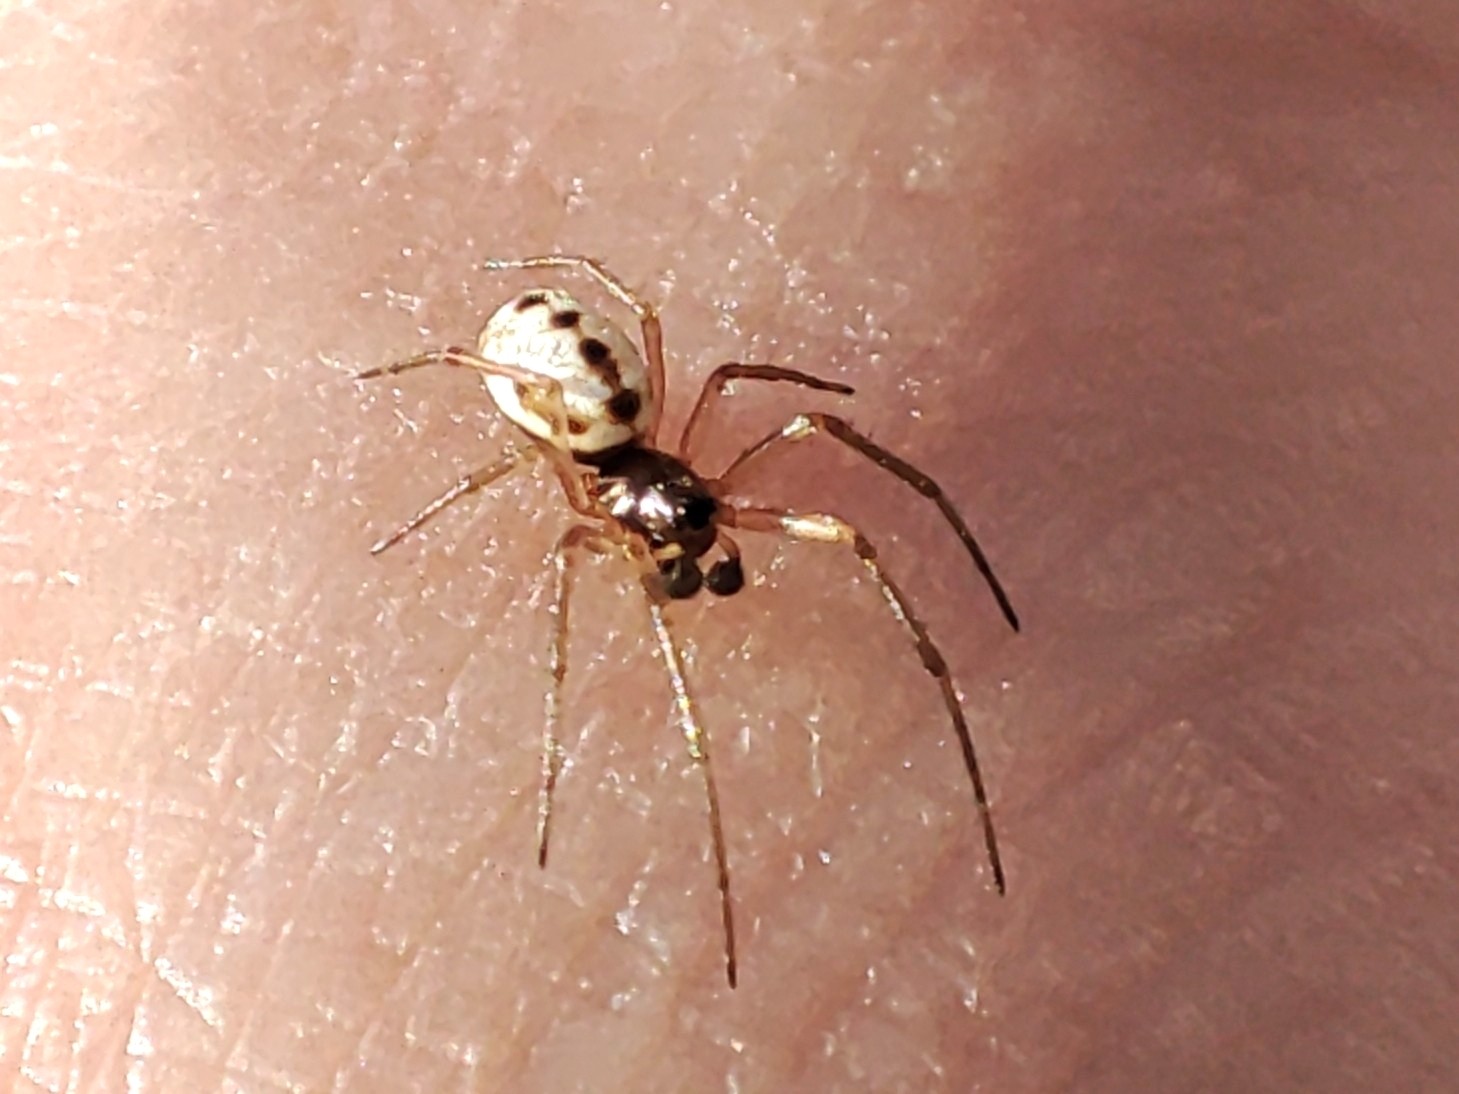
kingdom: Animalia
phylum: Arthropoda
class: Arachnida
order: Araneae
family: Linyphiidae
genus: Microlinyphia
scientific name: Microlinyphia pusilla
